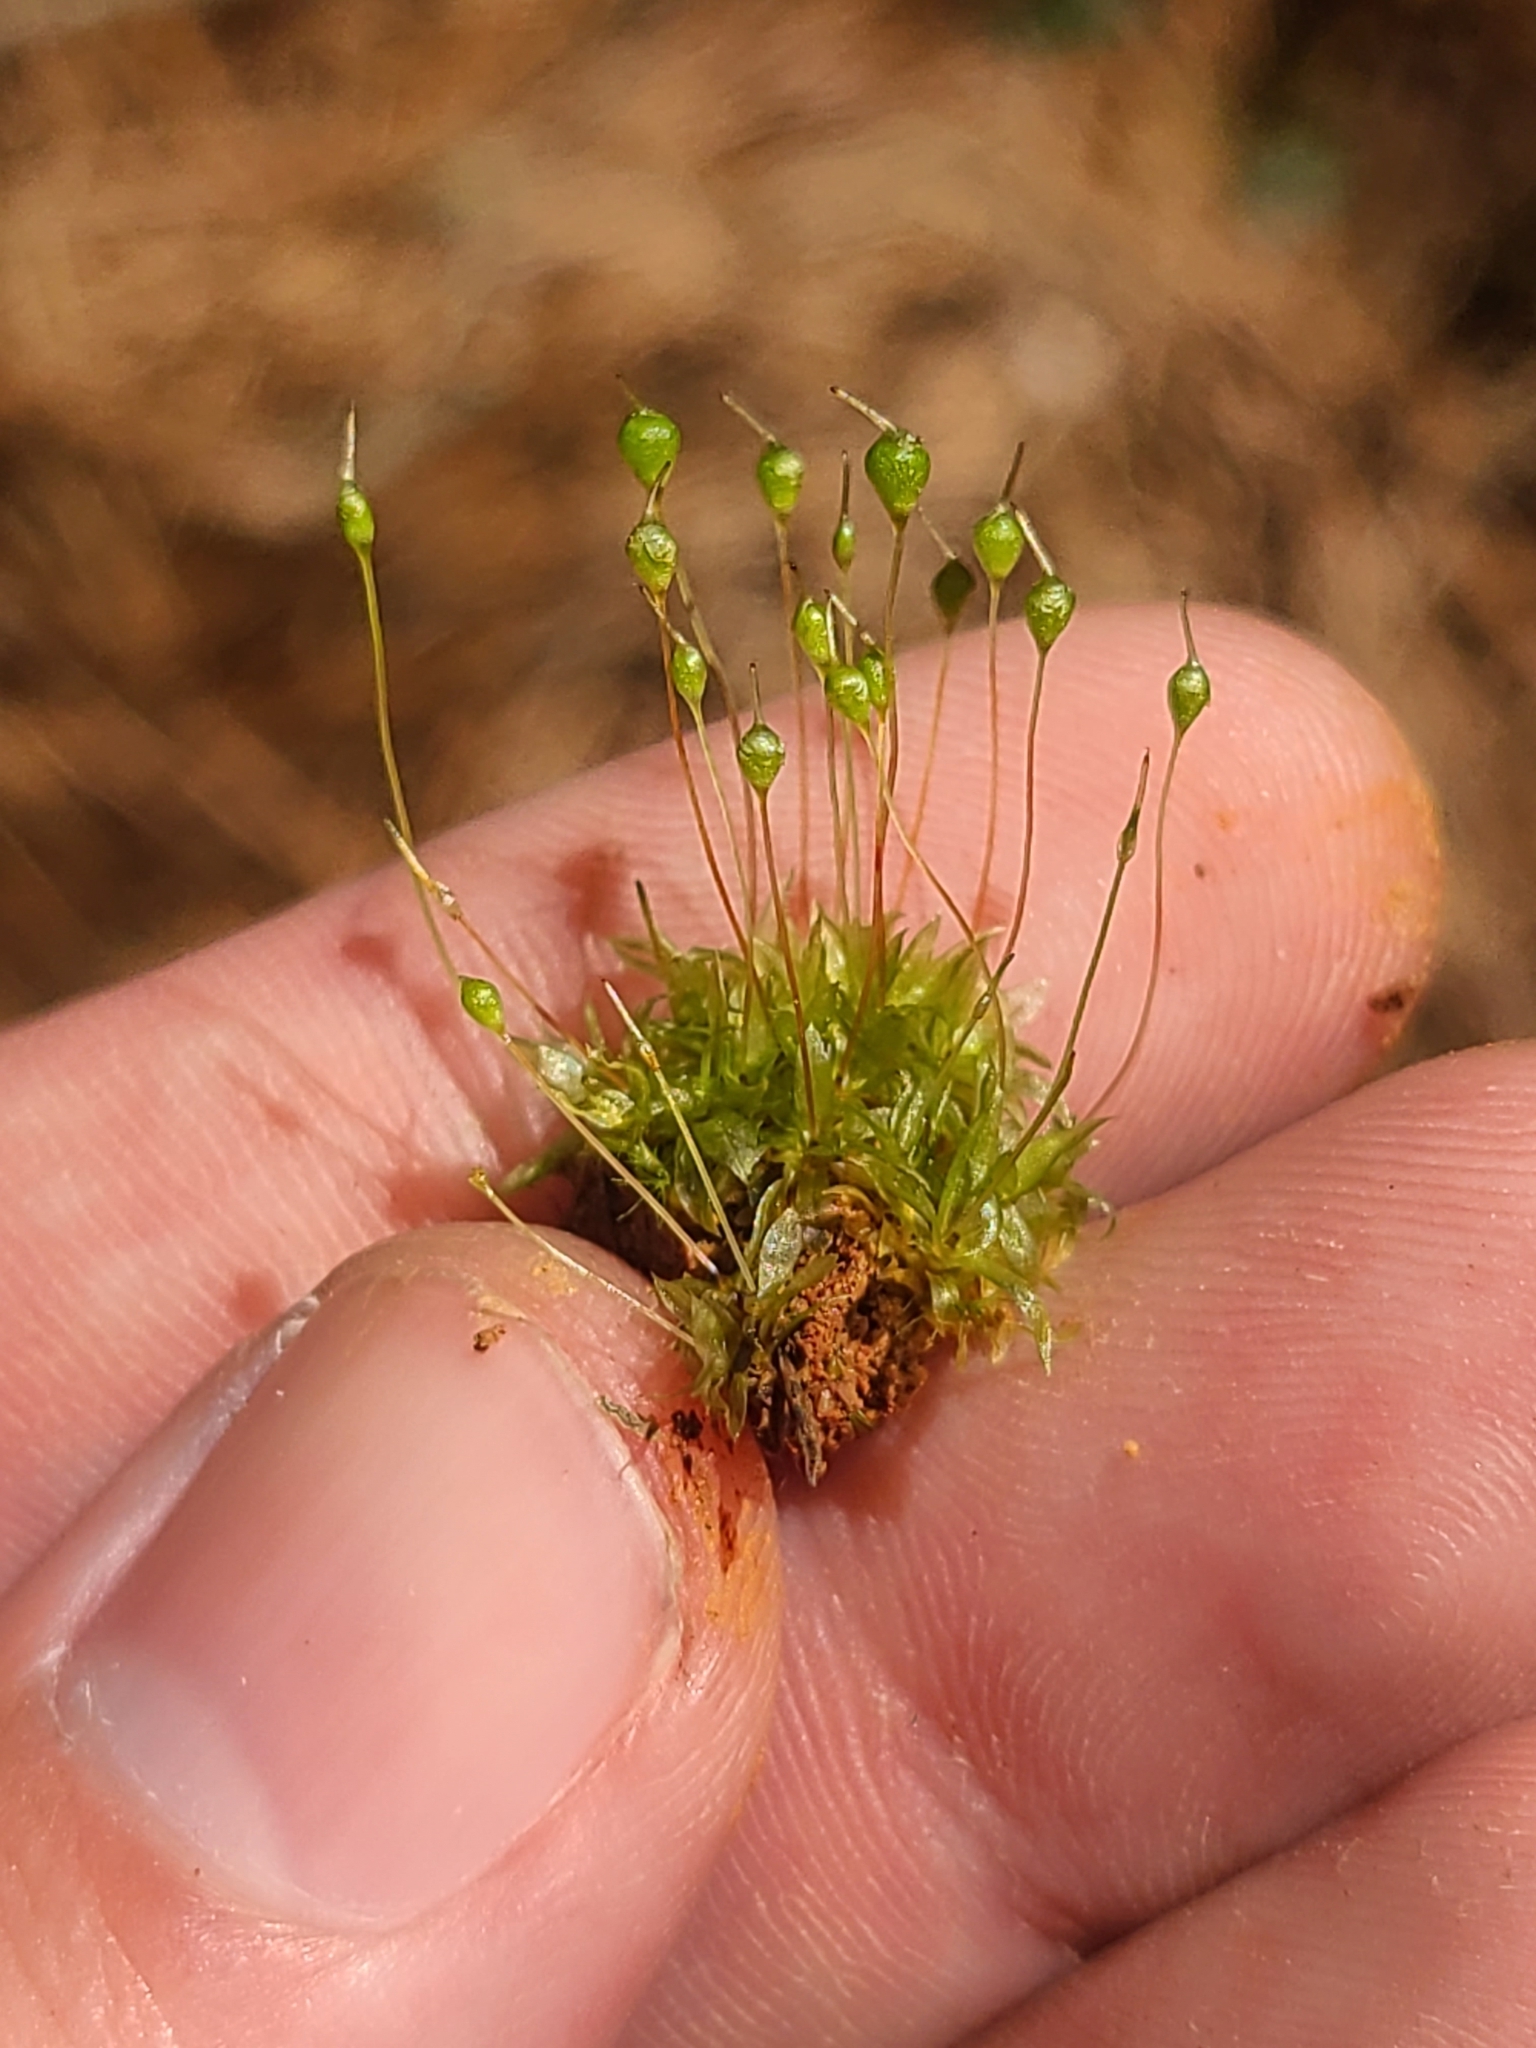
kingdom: Plantae
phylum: Bryophyta
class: Bryopsida
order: Funariales
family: Funariaceae
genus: Physcomitrium
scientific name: Physcomitrium pyriforme
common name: Common bladder-moss
